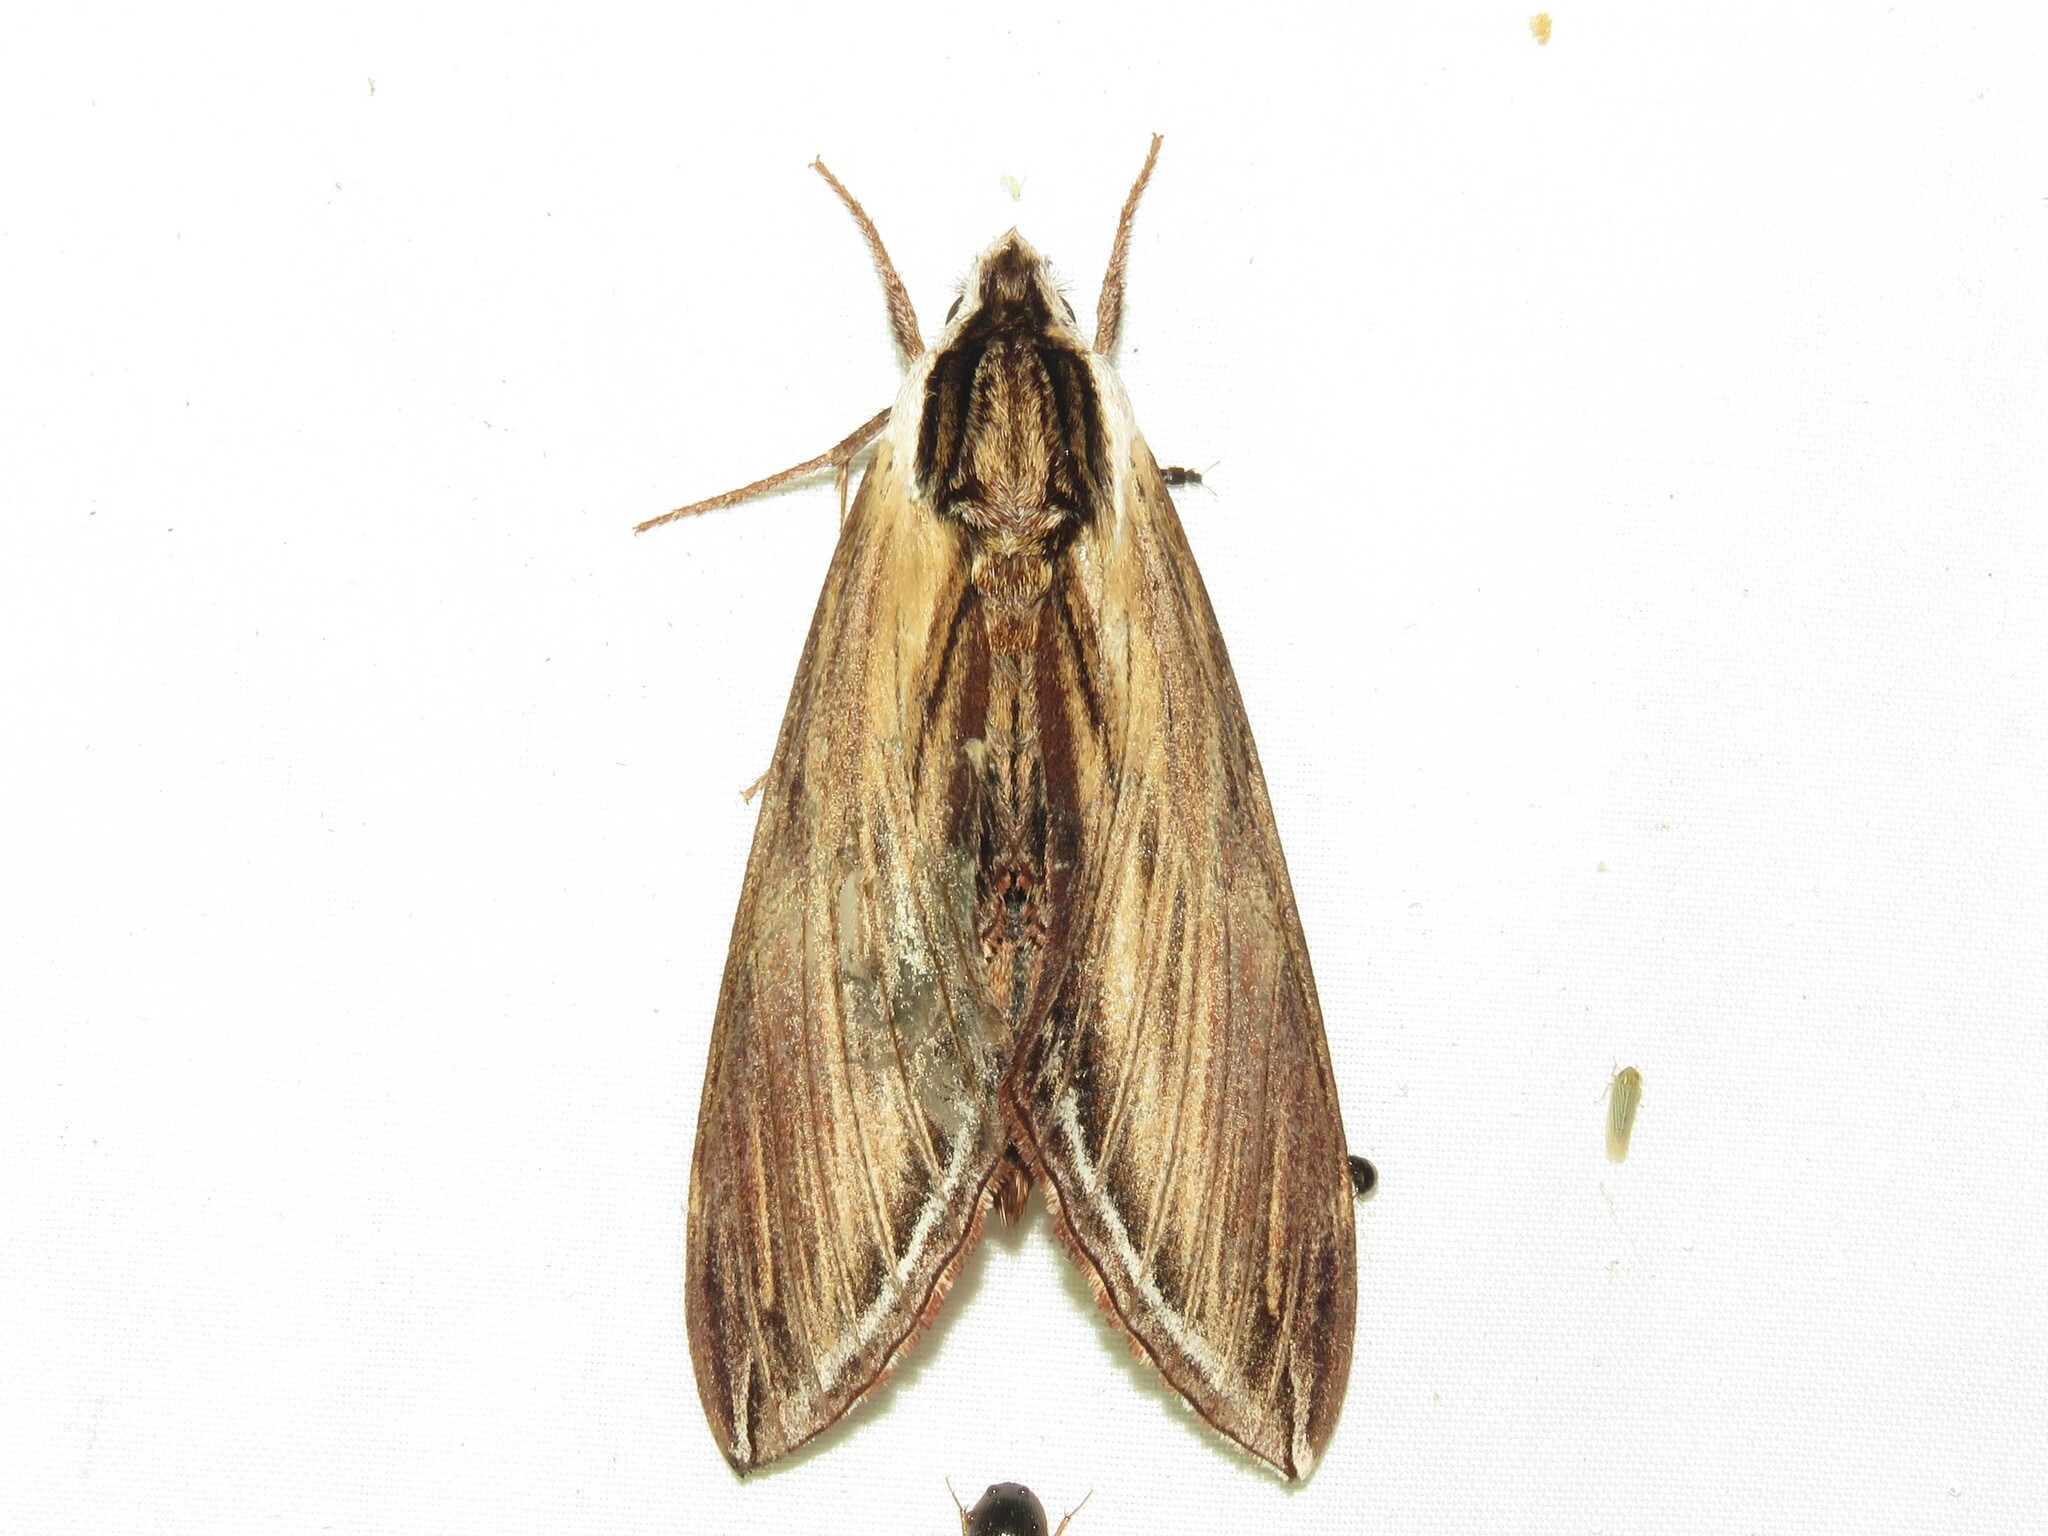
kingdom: Animalia
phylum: Arthropoda
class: Insecta
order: Lepidoptera
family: Sphingidae
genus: Sphinx
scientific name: Sphinx kalmiae
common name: Laurel sphinx
